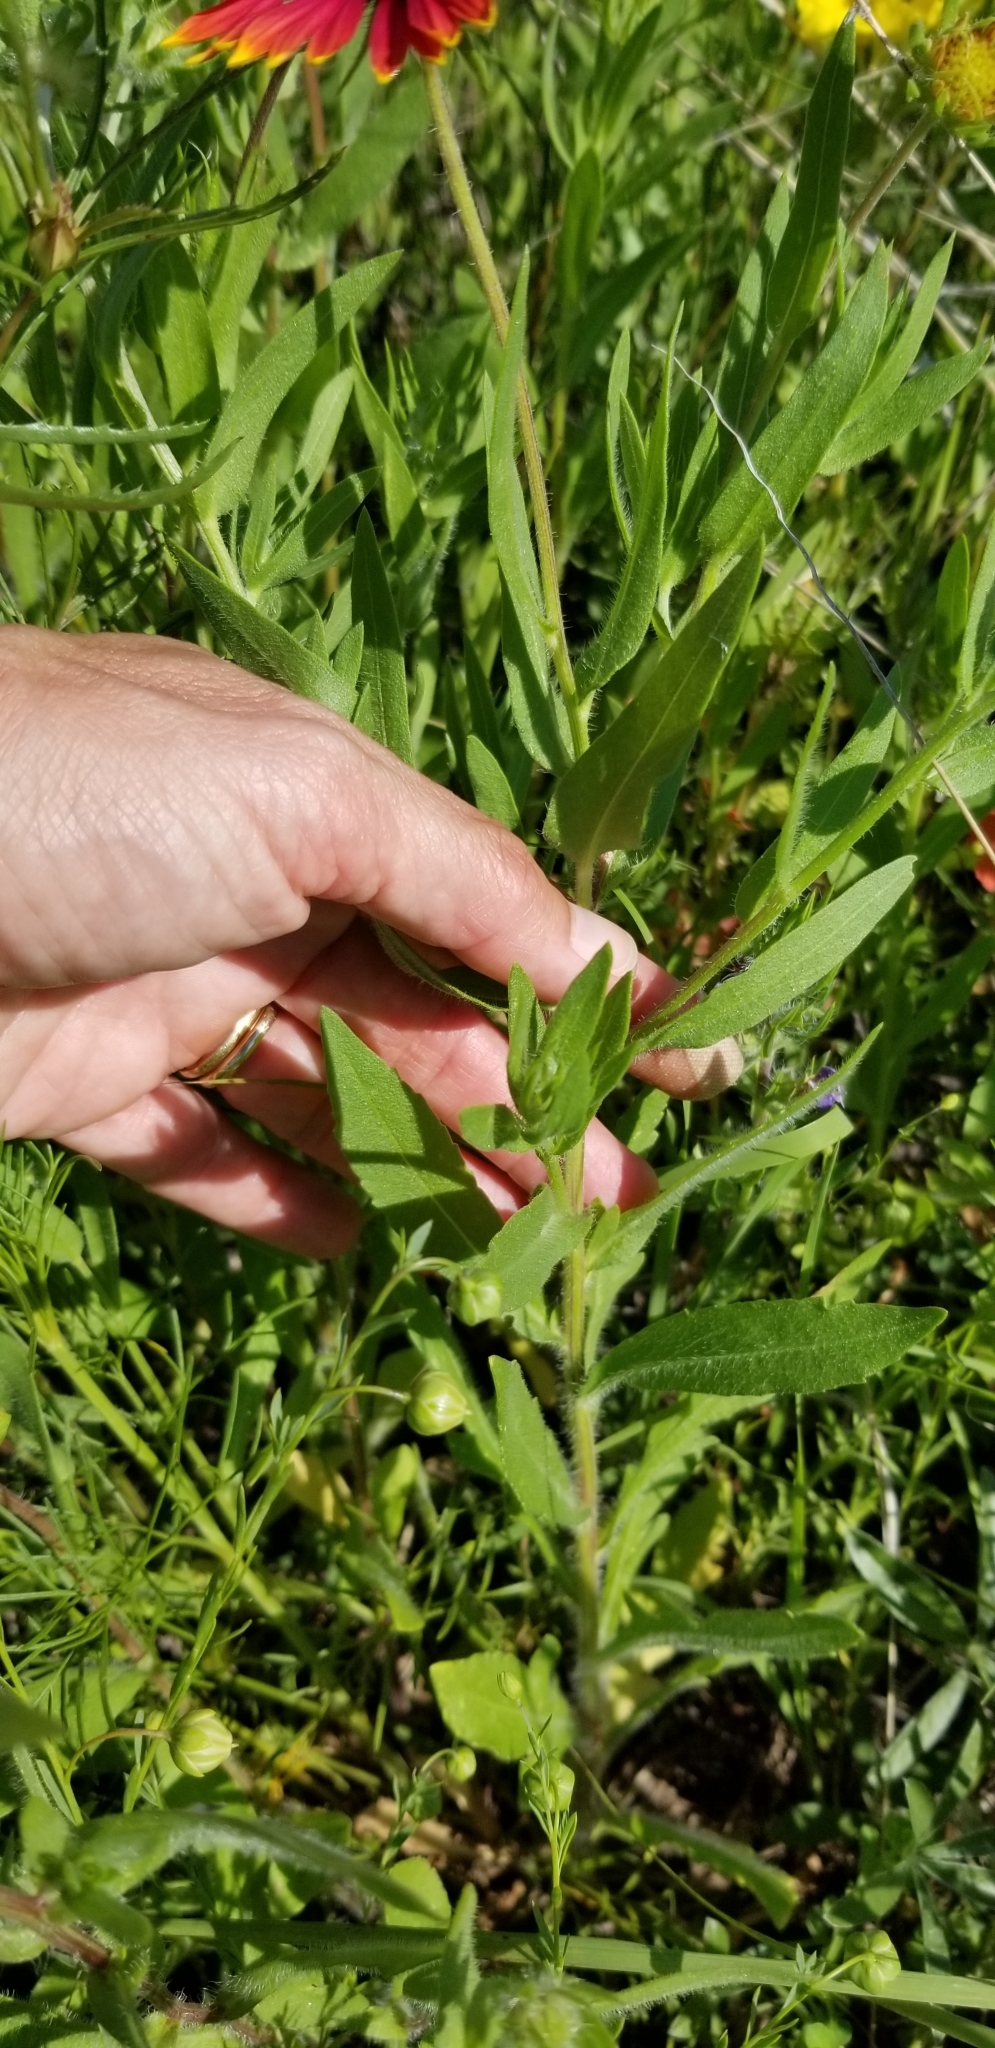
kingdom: Plantae
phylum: Tracheophyta
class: Magnoliopsida
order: Asterales
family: Asteraceae
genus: Gaillardia
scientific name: Gaillardia pulchella
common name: Firewheel
